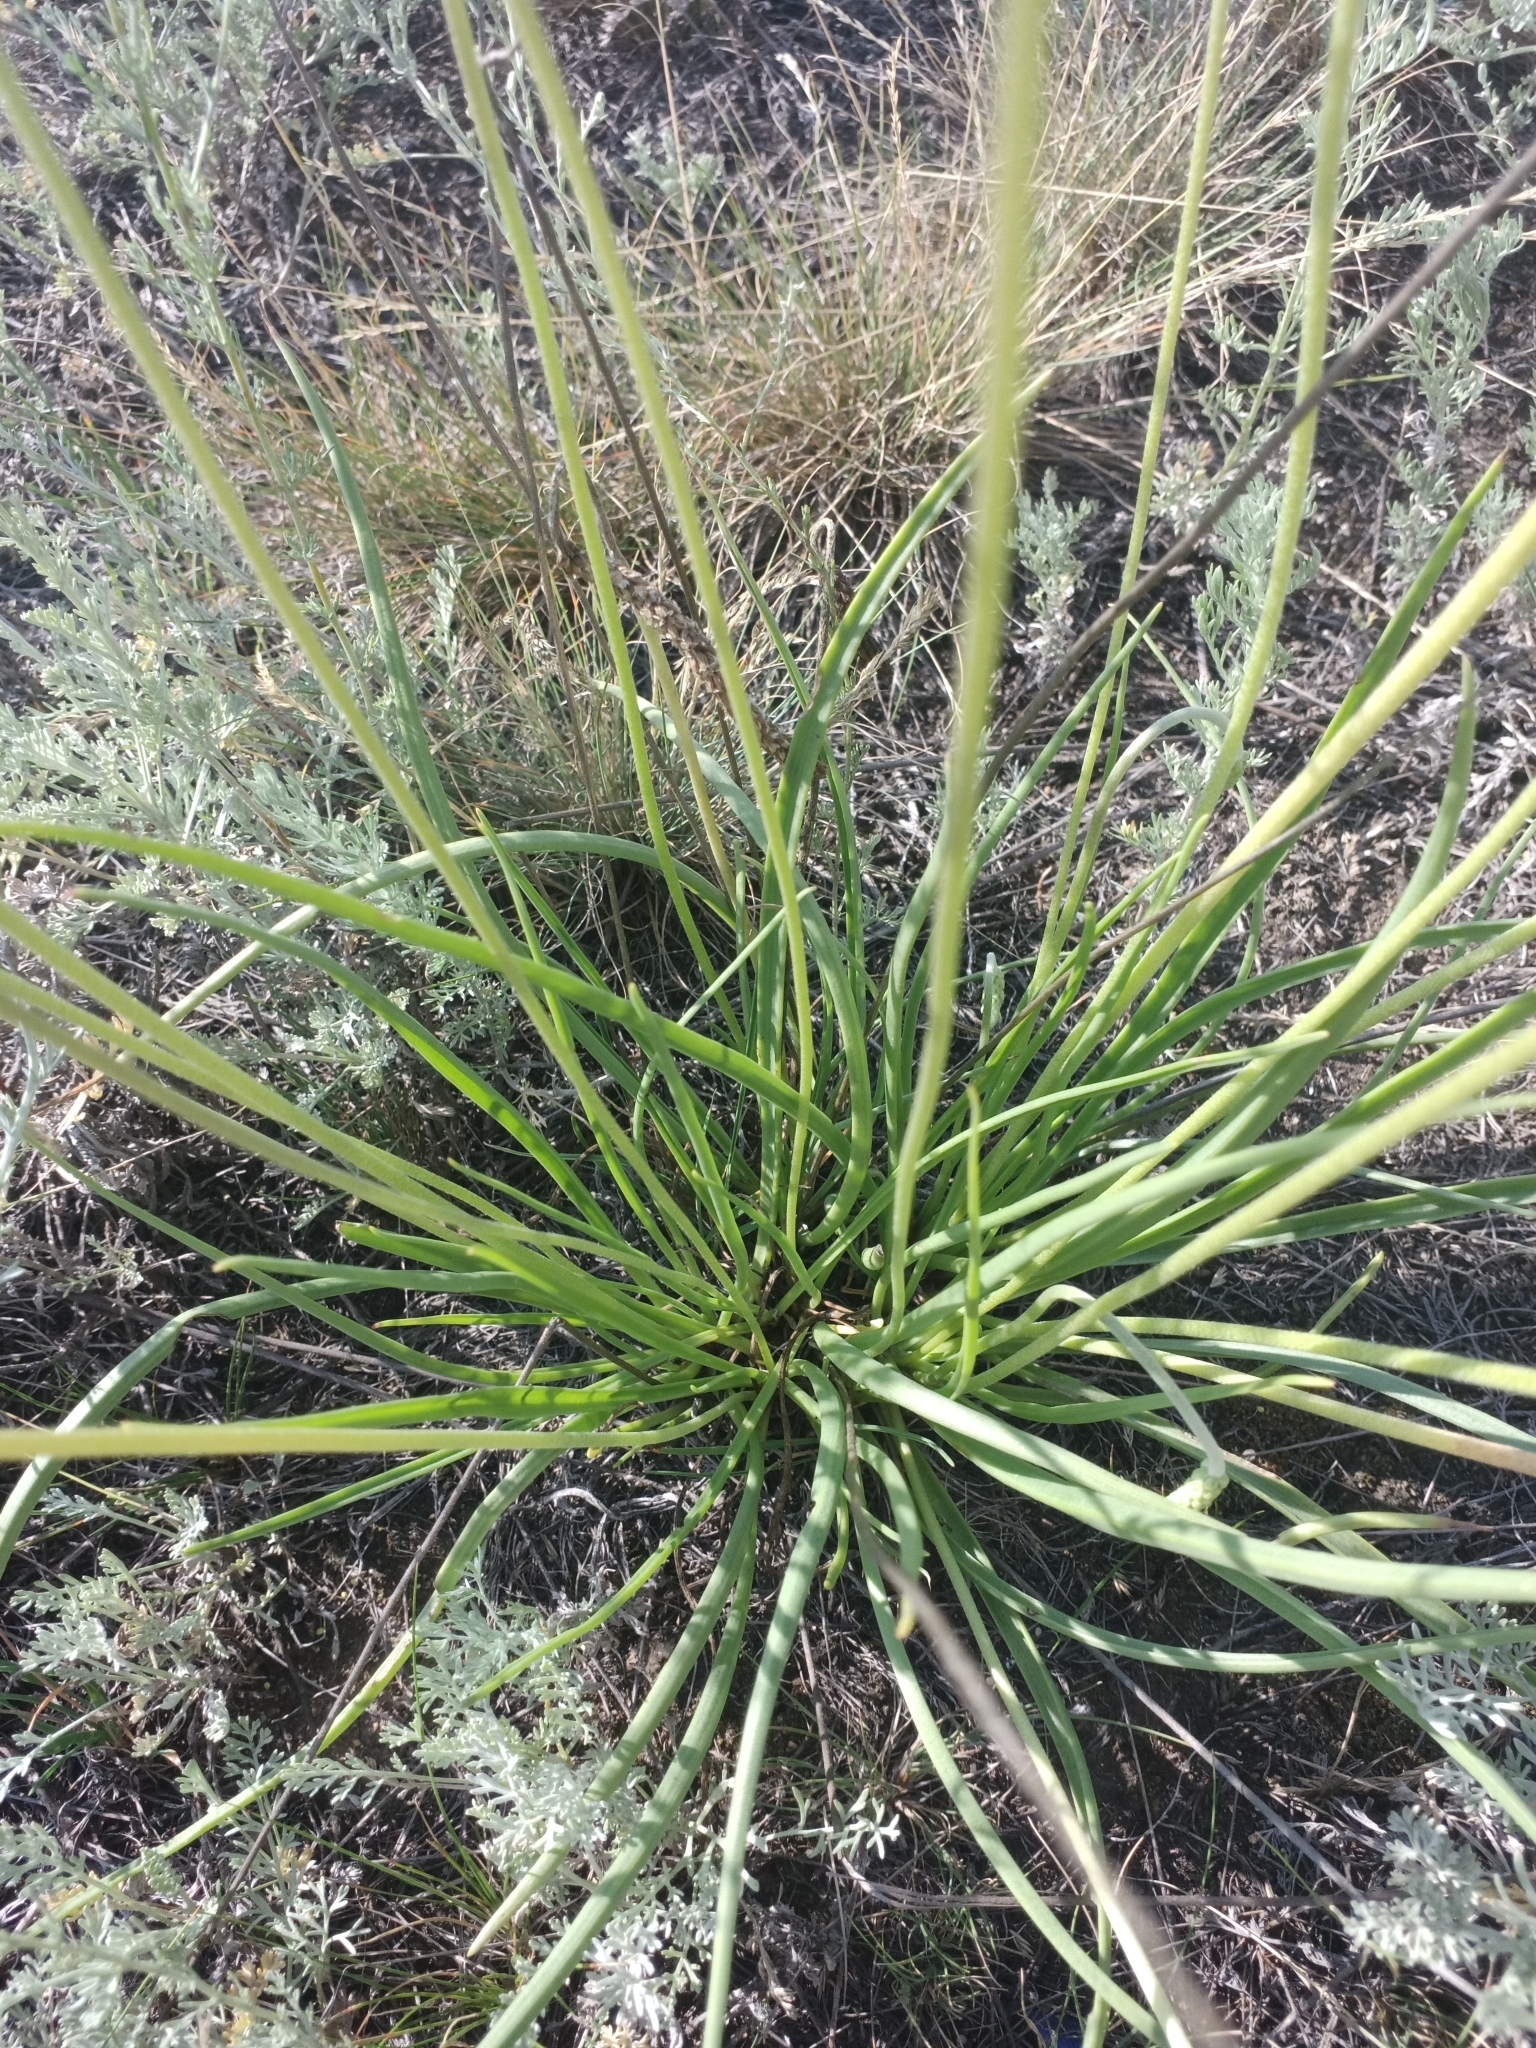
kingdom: Plantae
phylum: Tracheophyta
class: Magnoliopsida
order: Lamiales
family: Plantaginaceae
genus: Plantago
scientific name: Plantago salsa
